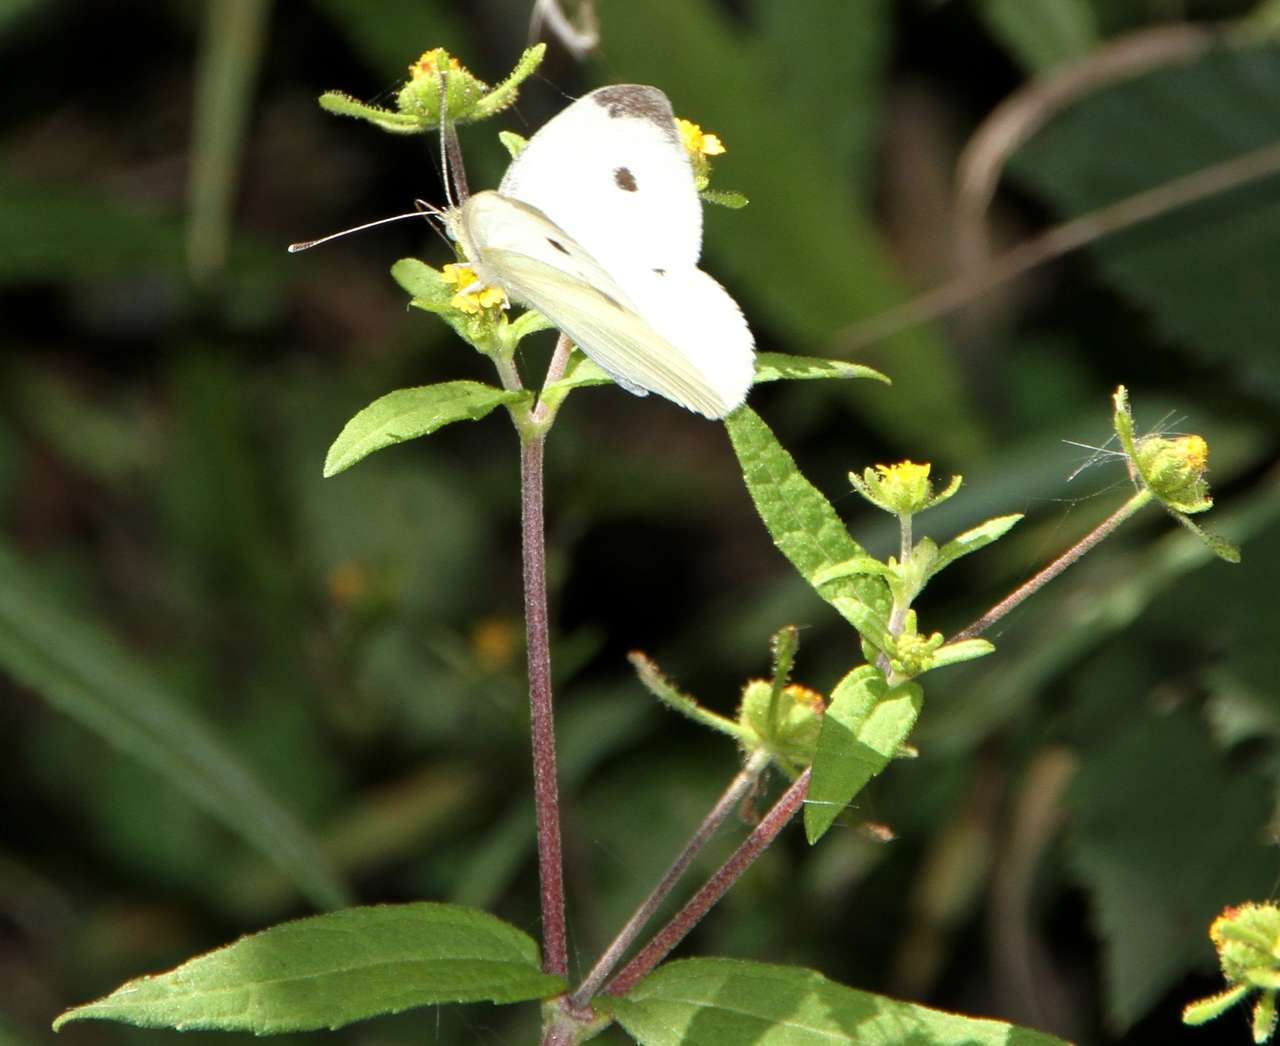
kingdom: Animalia
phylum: Arthropoda
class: Insecta
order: Lepidoptera
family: Pieridae
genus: Pieris
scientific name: Pieris rapae
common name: Small white
